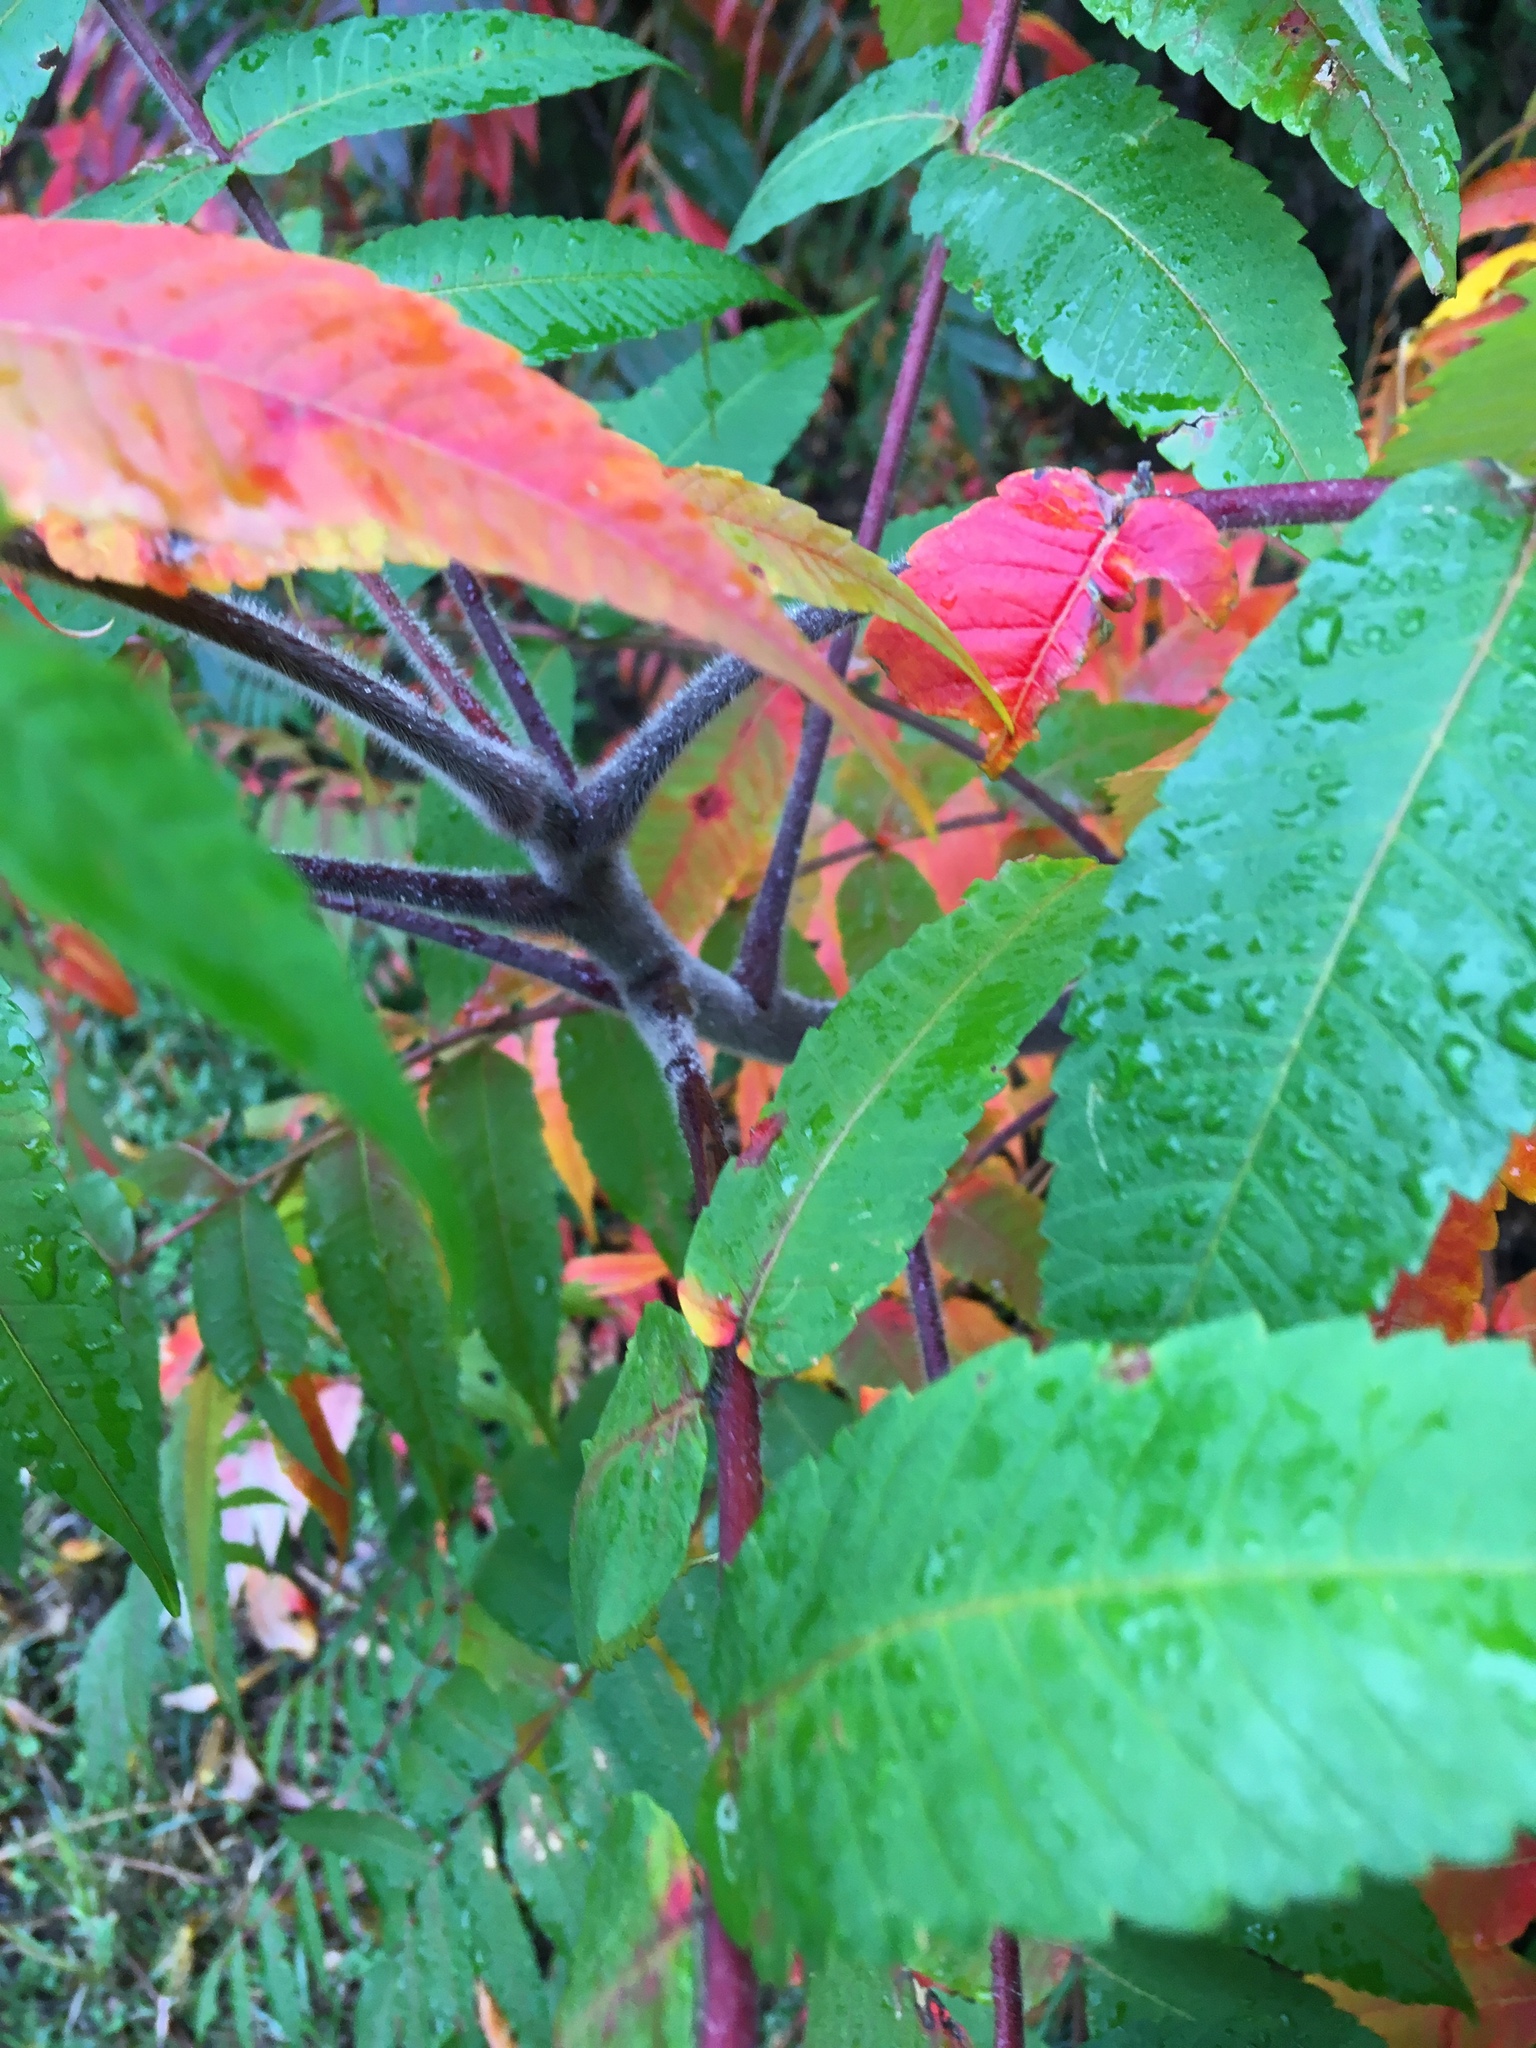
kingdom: Plantae
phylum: Tracheophyta
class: Magnoliopsida
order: Sapindales
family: Anacardiaceae
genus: Rhus
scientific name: Rhus typhina
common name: Staghorn sumac
